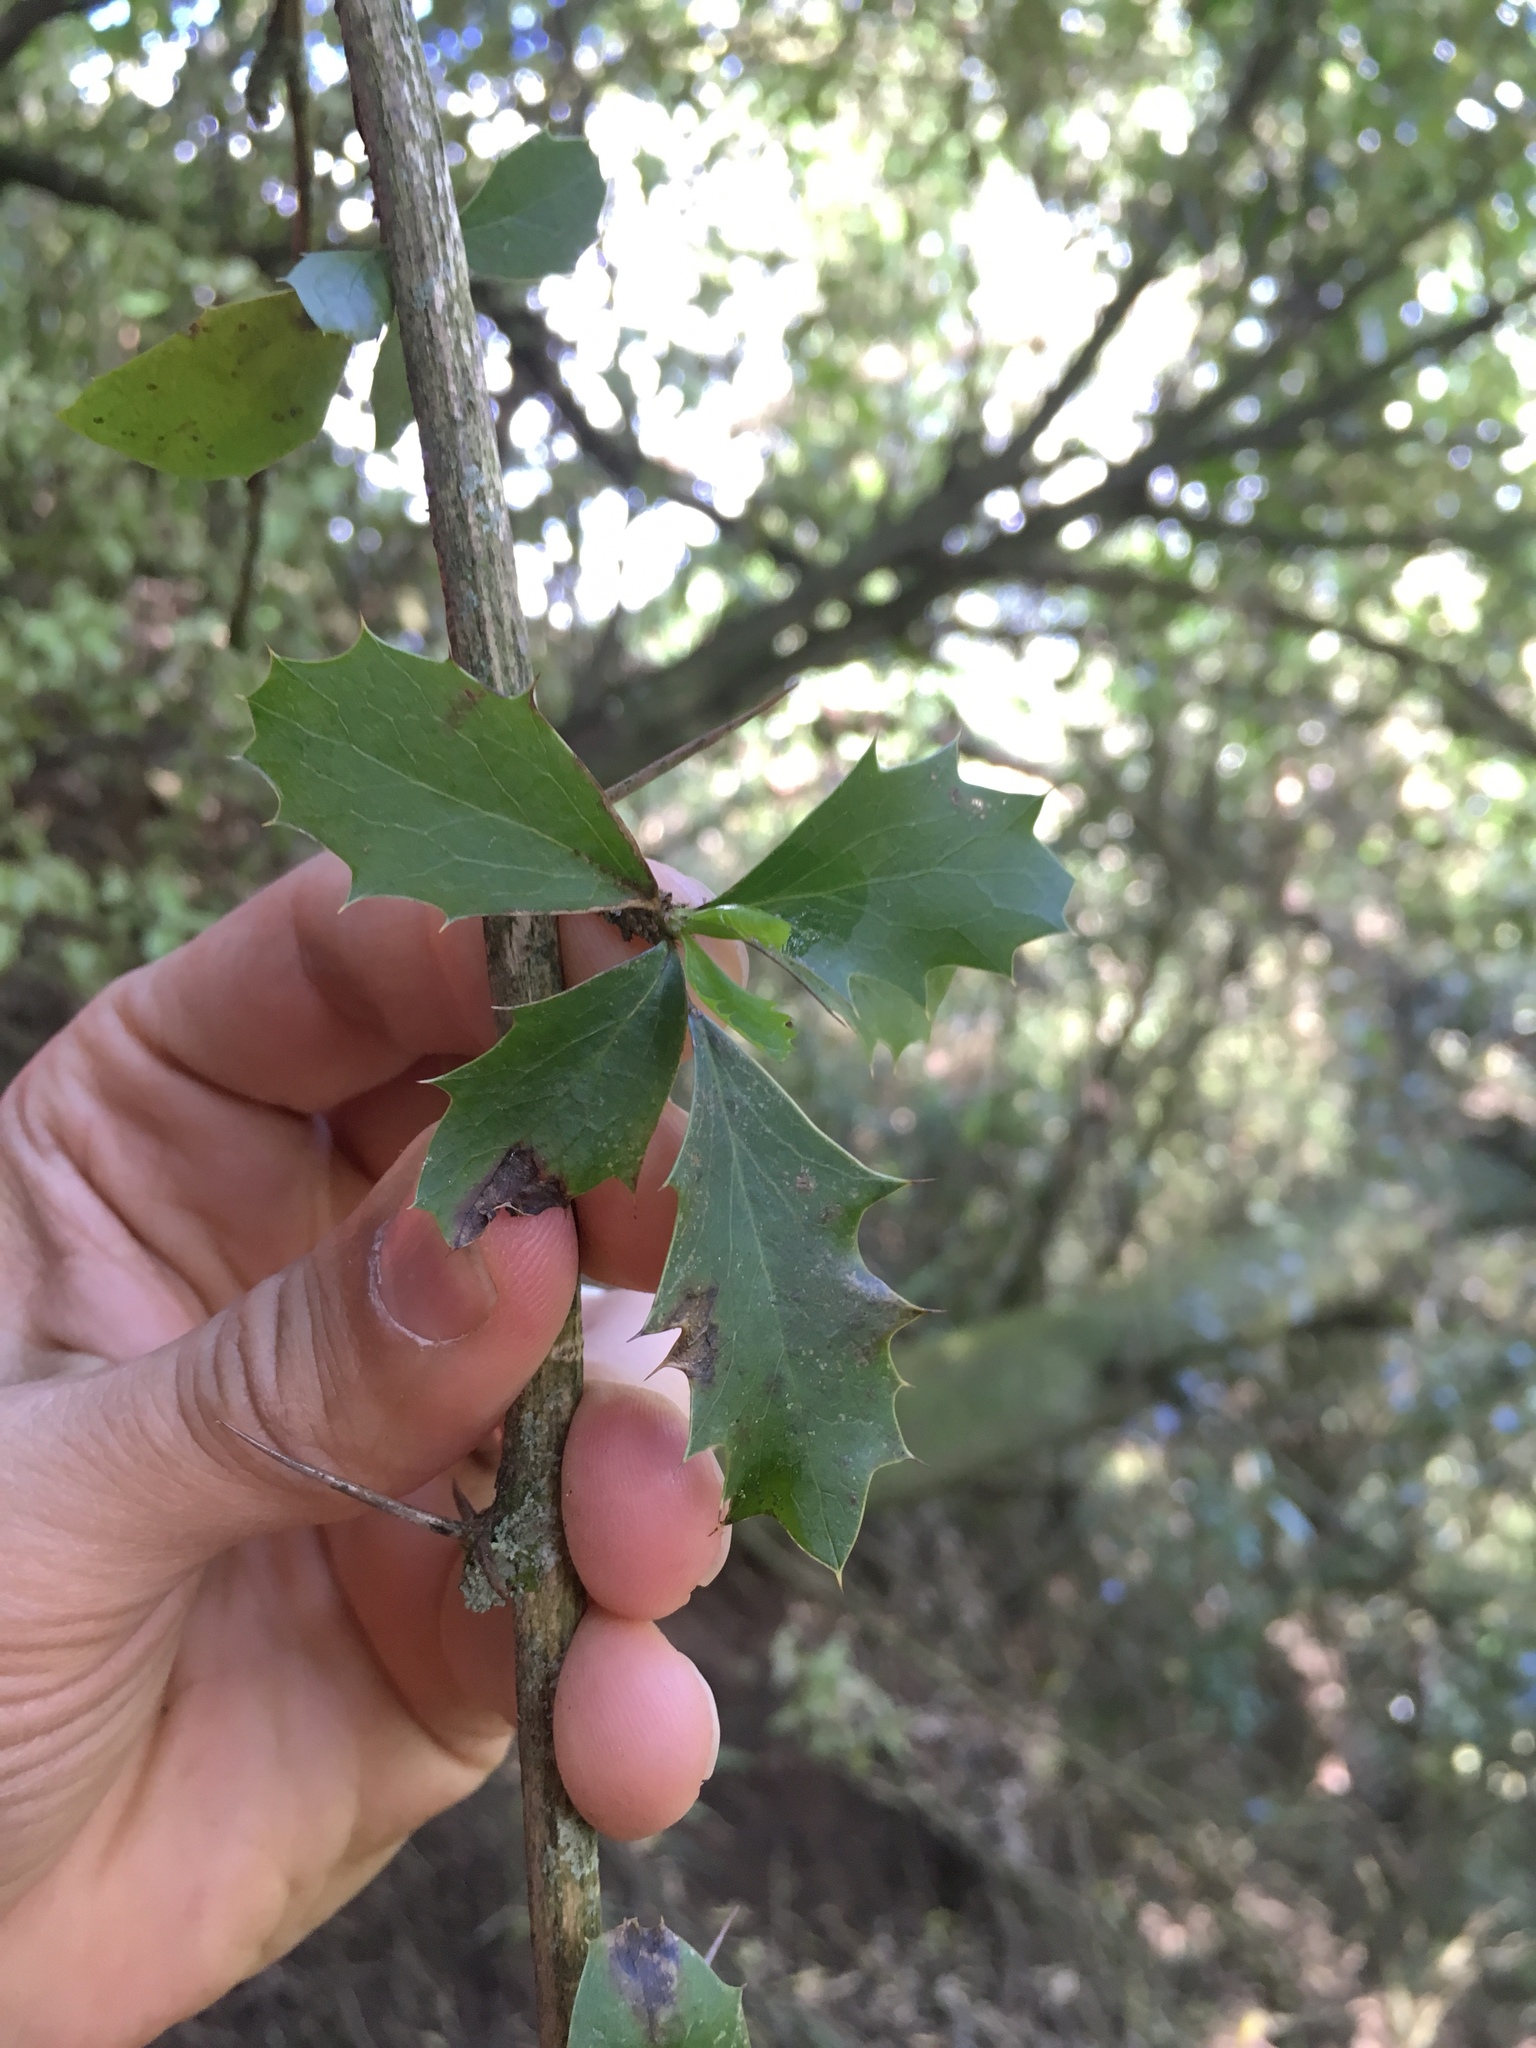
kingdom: Plantae
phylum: Tracheophyta
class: Magnoliopsida
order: Ranunculales
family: Berberidaceae
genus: Berberis
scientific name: Berberis glaucocarpa
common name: Great barberry
